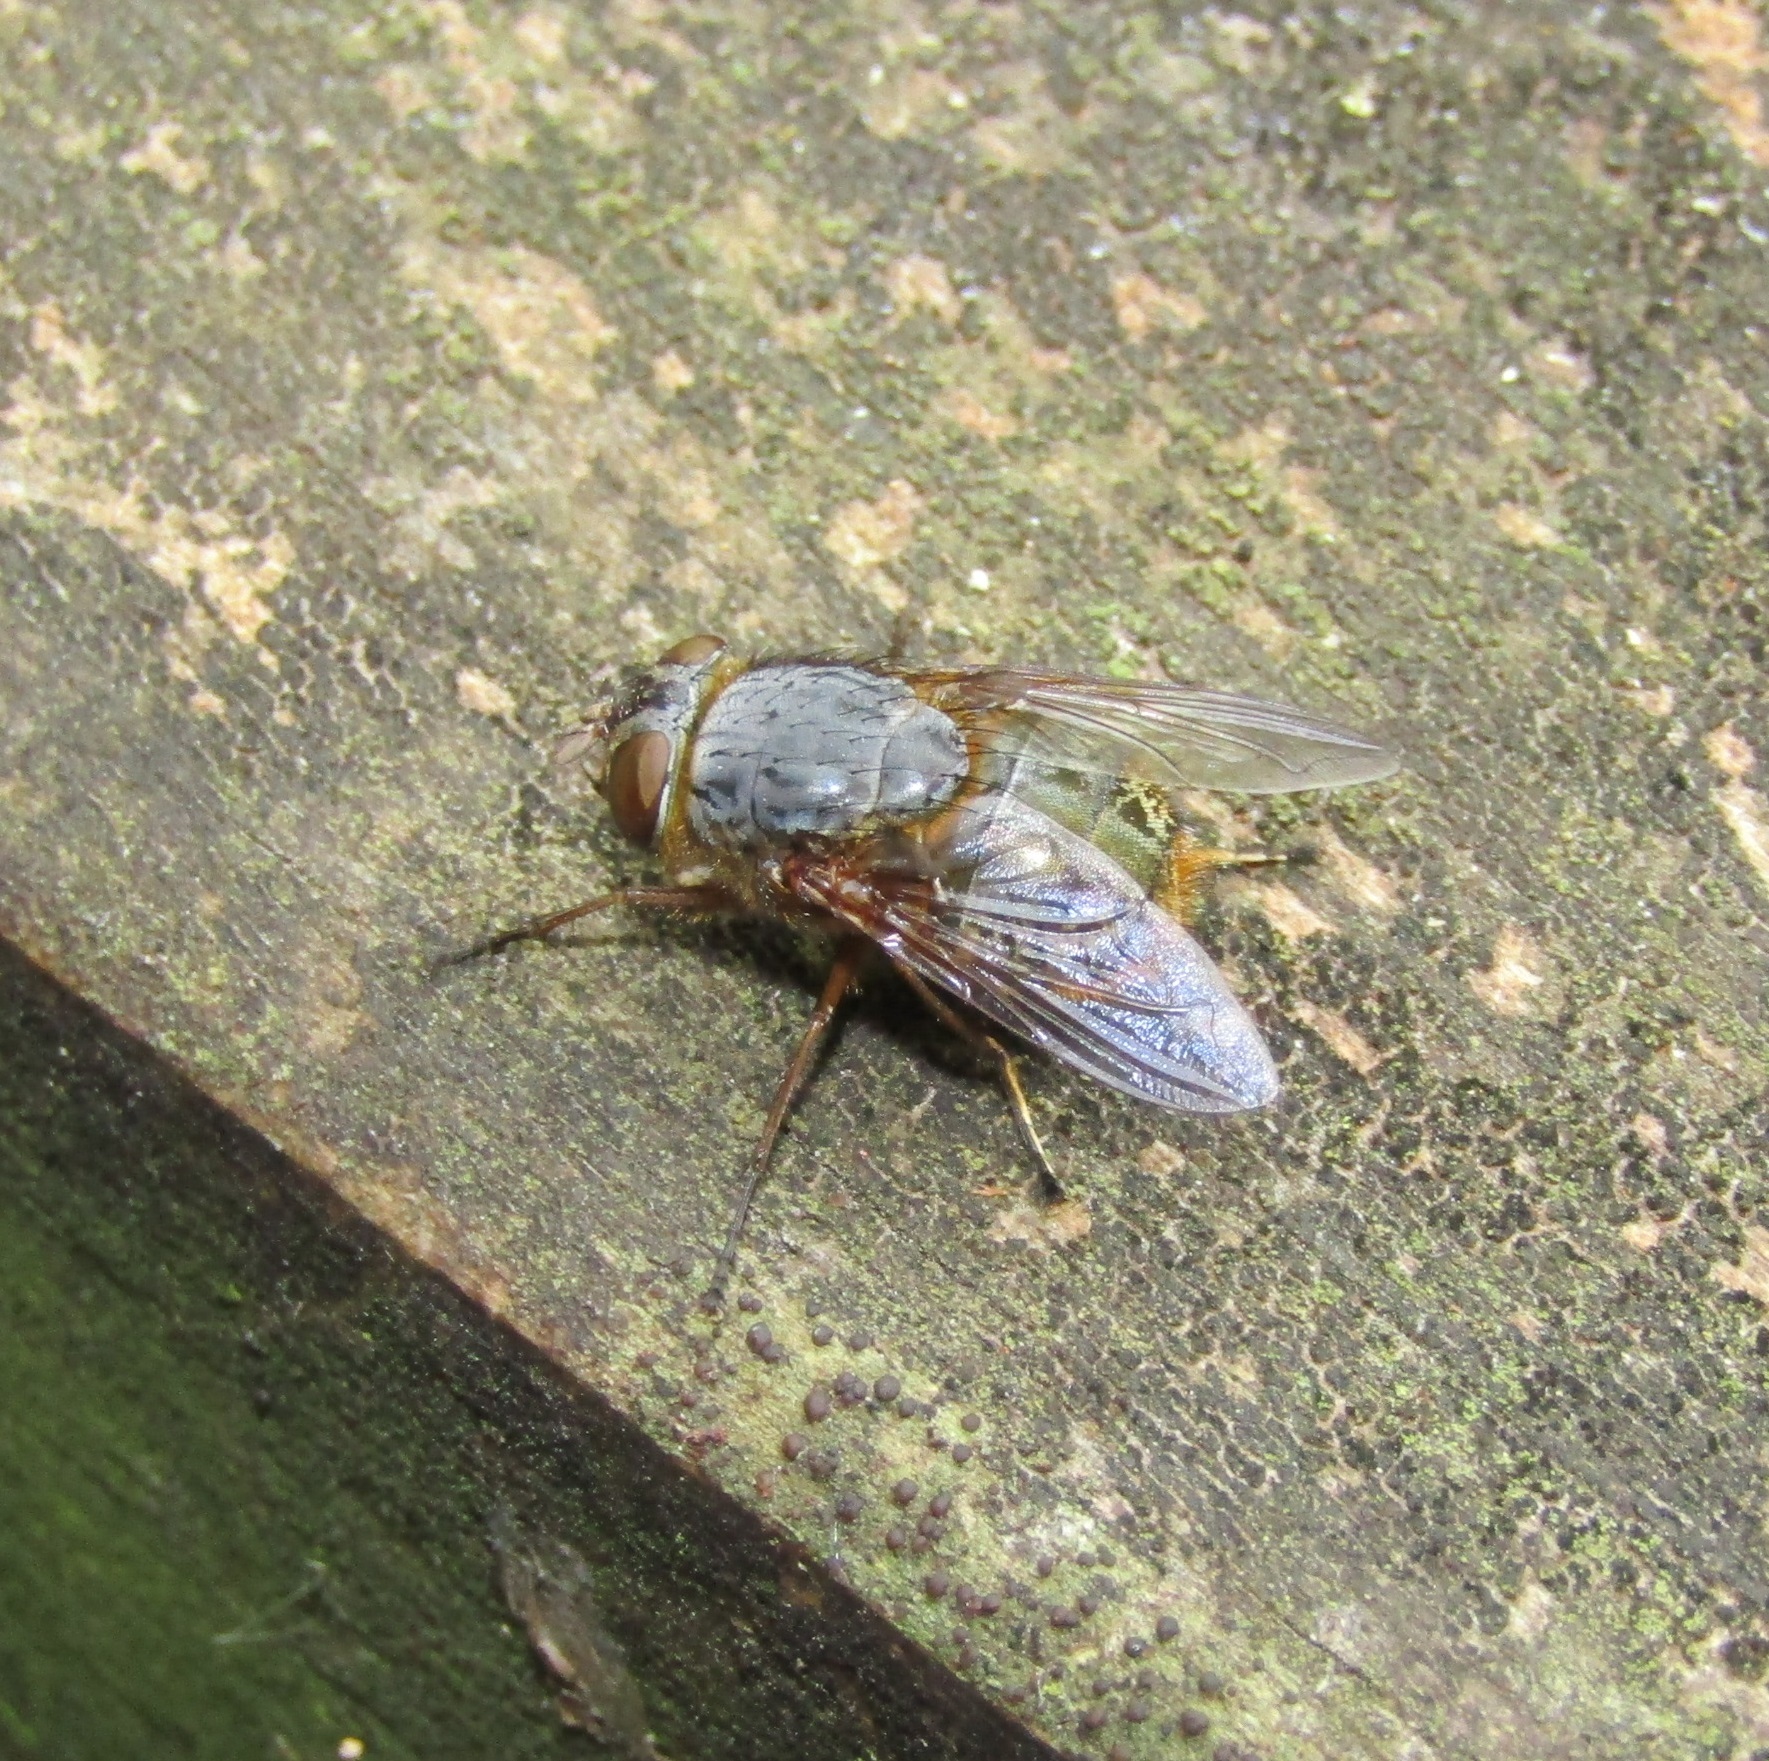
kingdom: Animalia
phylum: Arthropoda
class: Insecta
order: Diptera
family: Calliphoridae
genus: Calliphora
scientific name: Calliphora stygia
